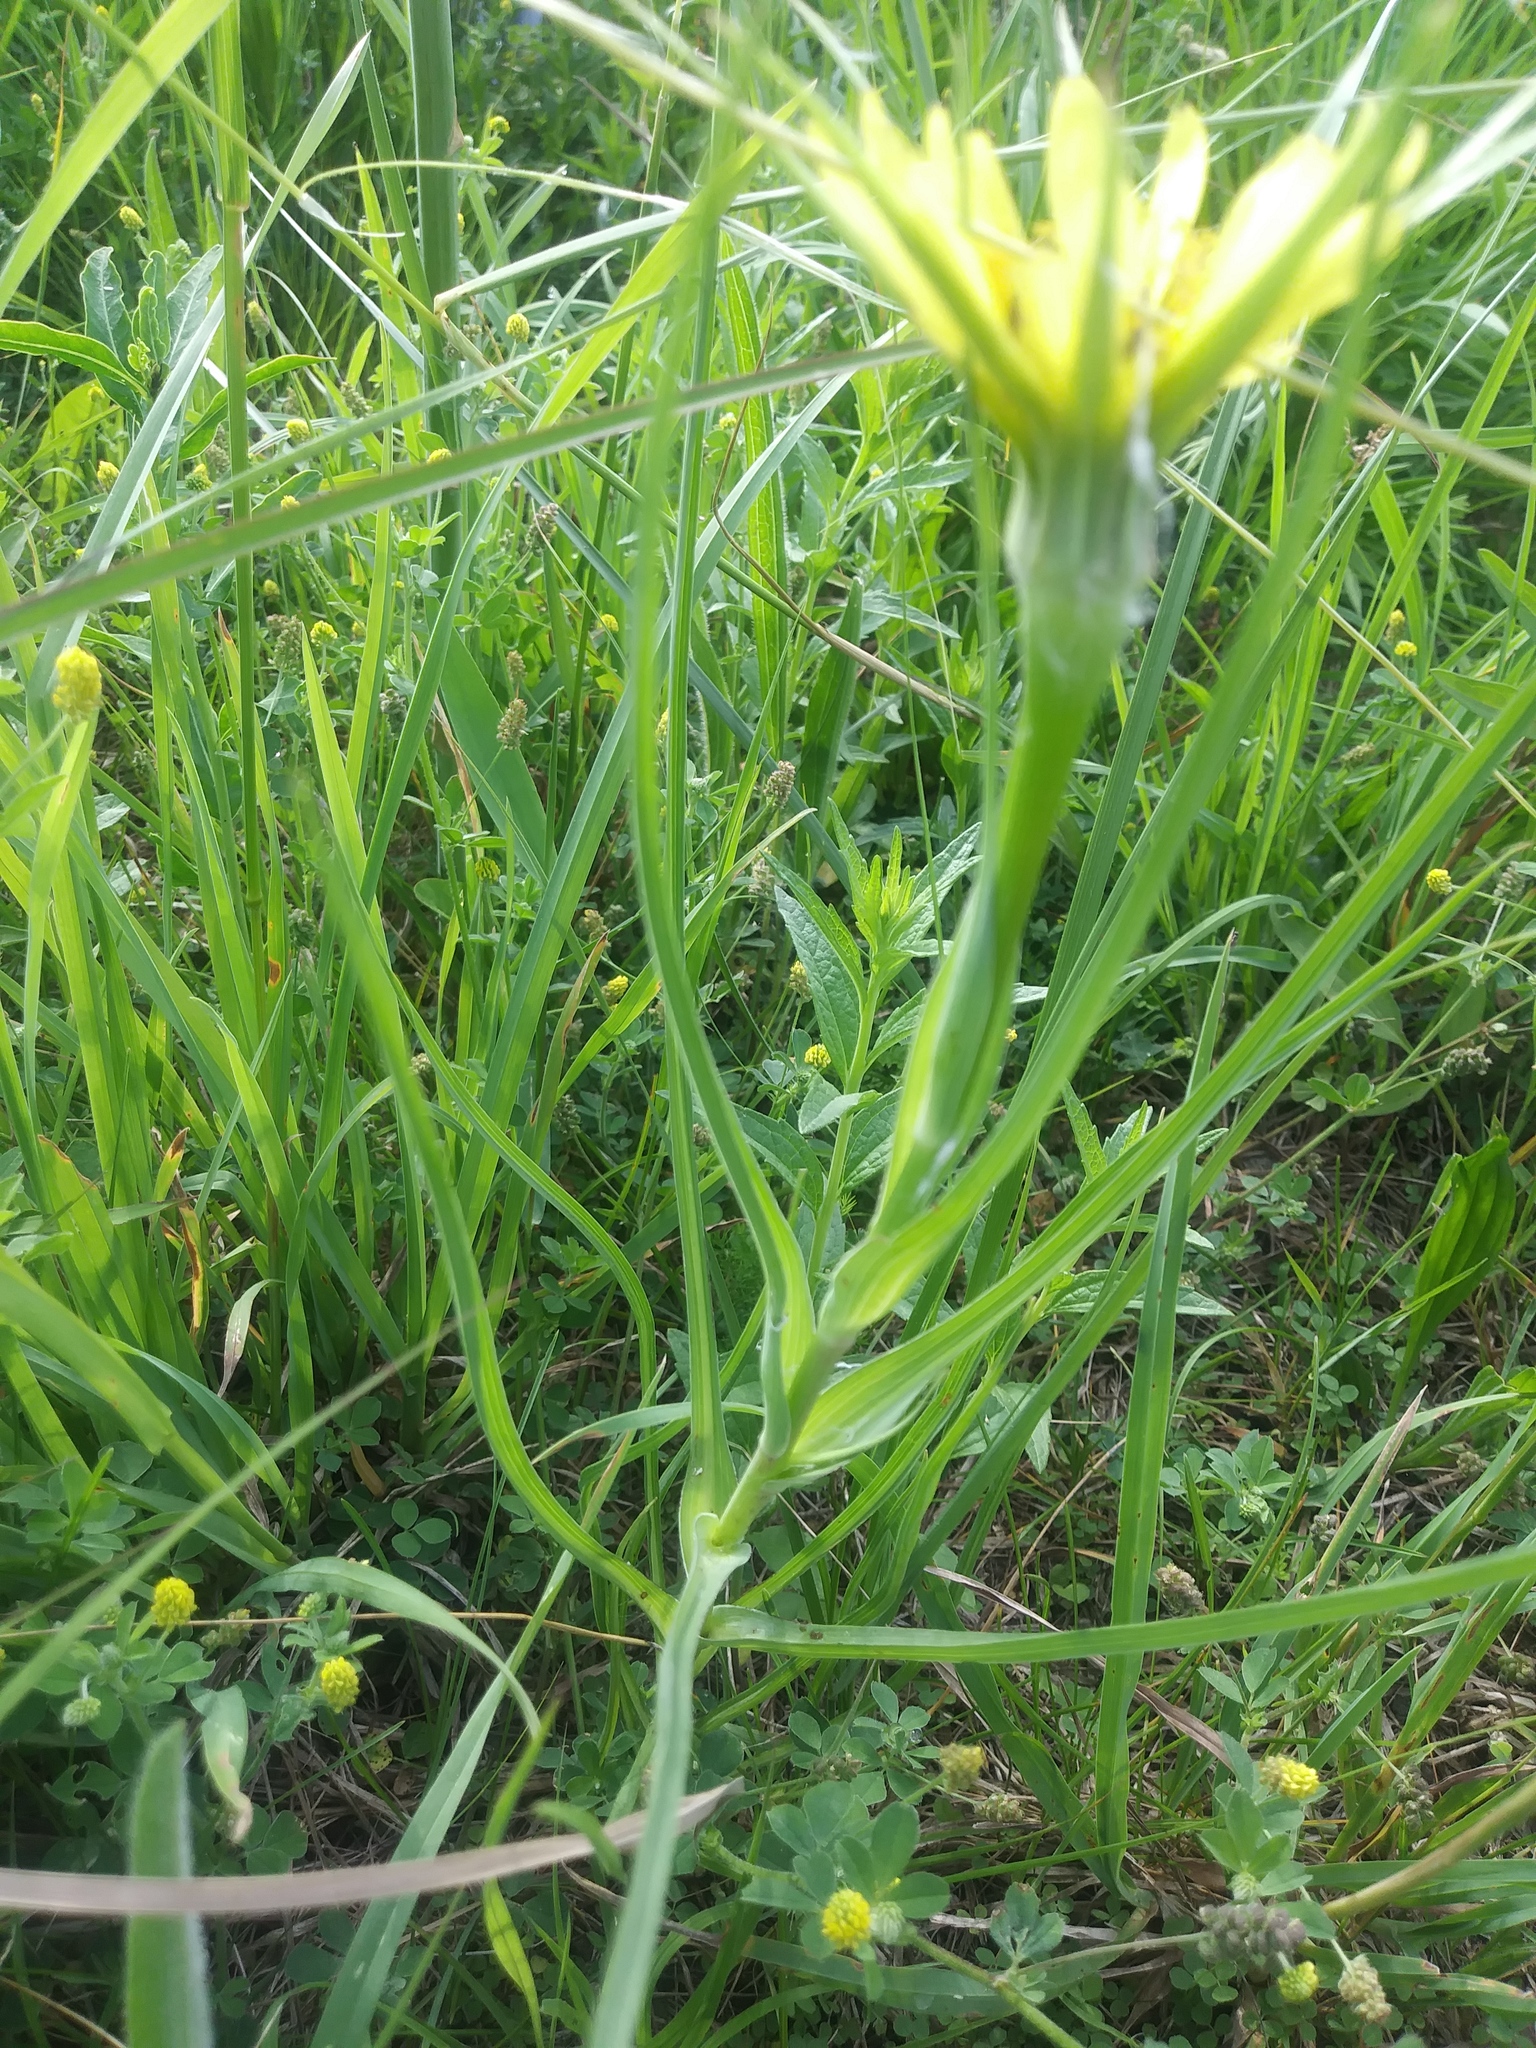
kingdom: Plantae
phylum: Tracheophyta
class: Magnoliopsida
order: Asterales
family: Asteraceae
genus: Tragopogon
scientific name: Tragopogon dubius
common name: Yellow salsify
